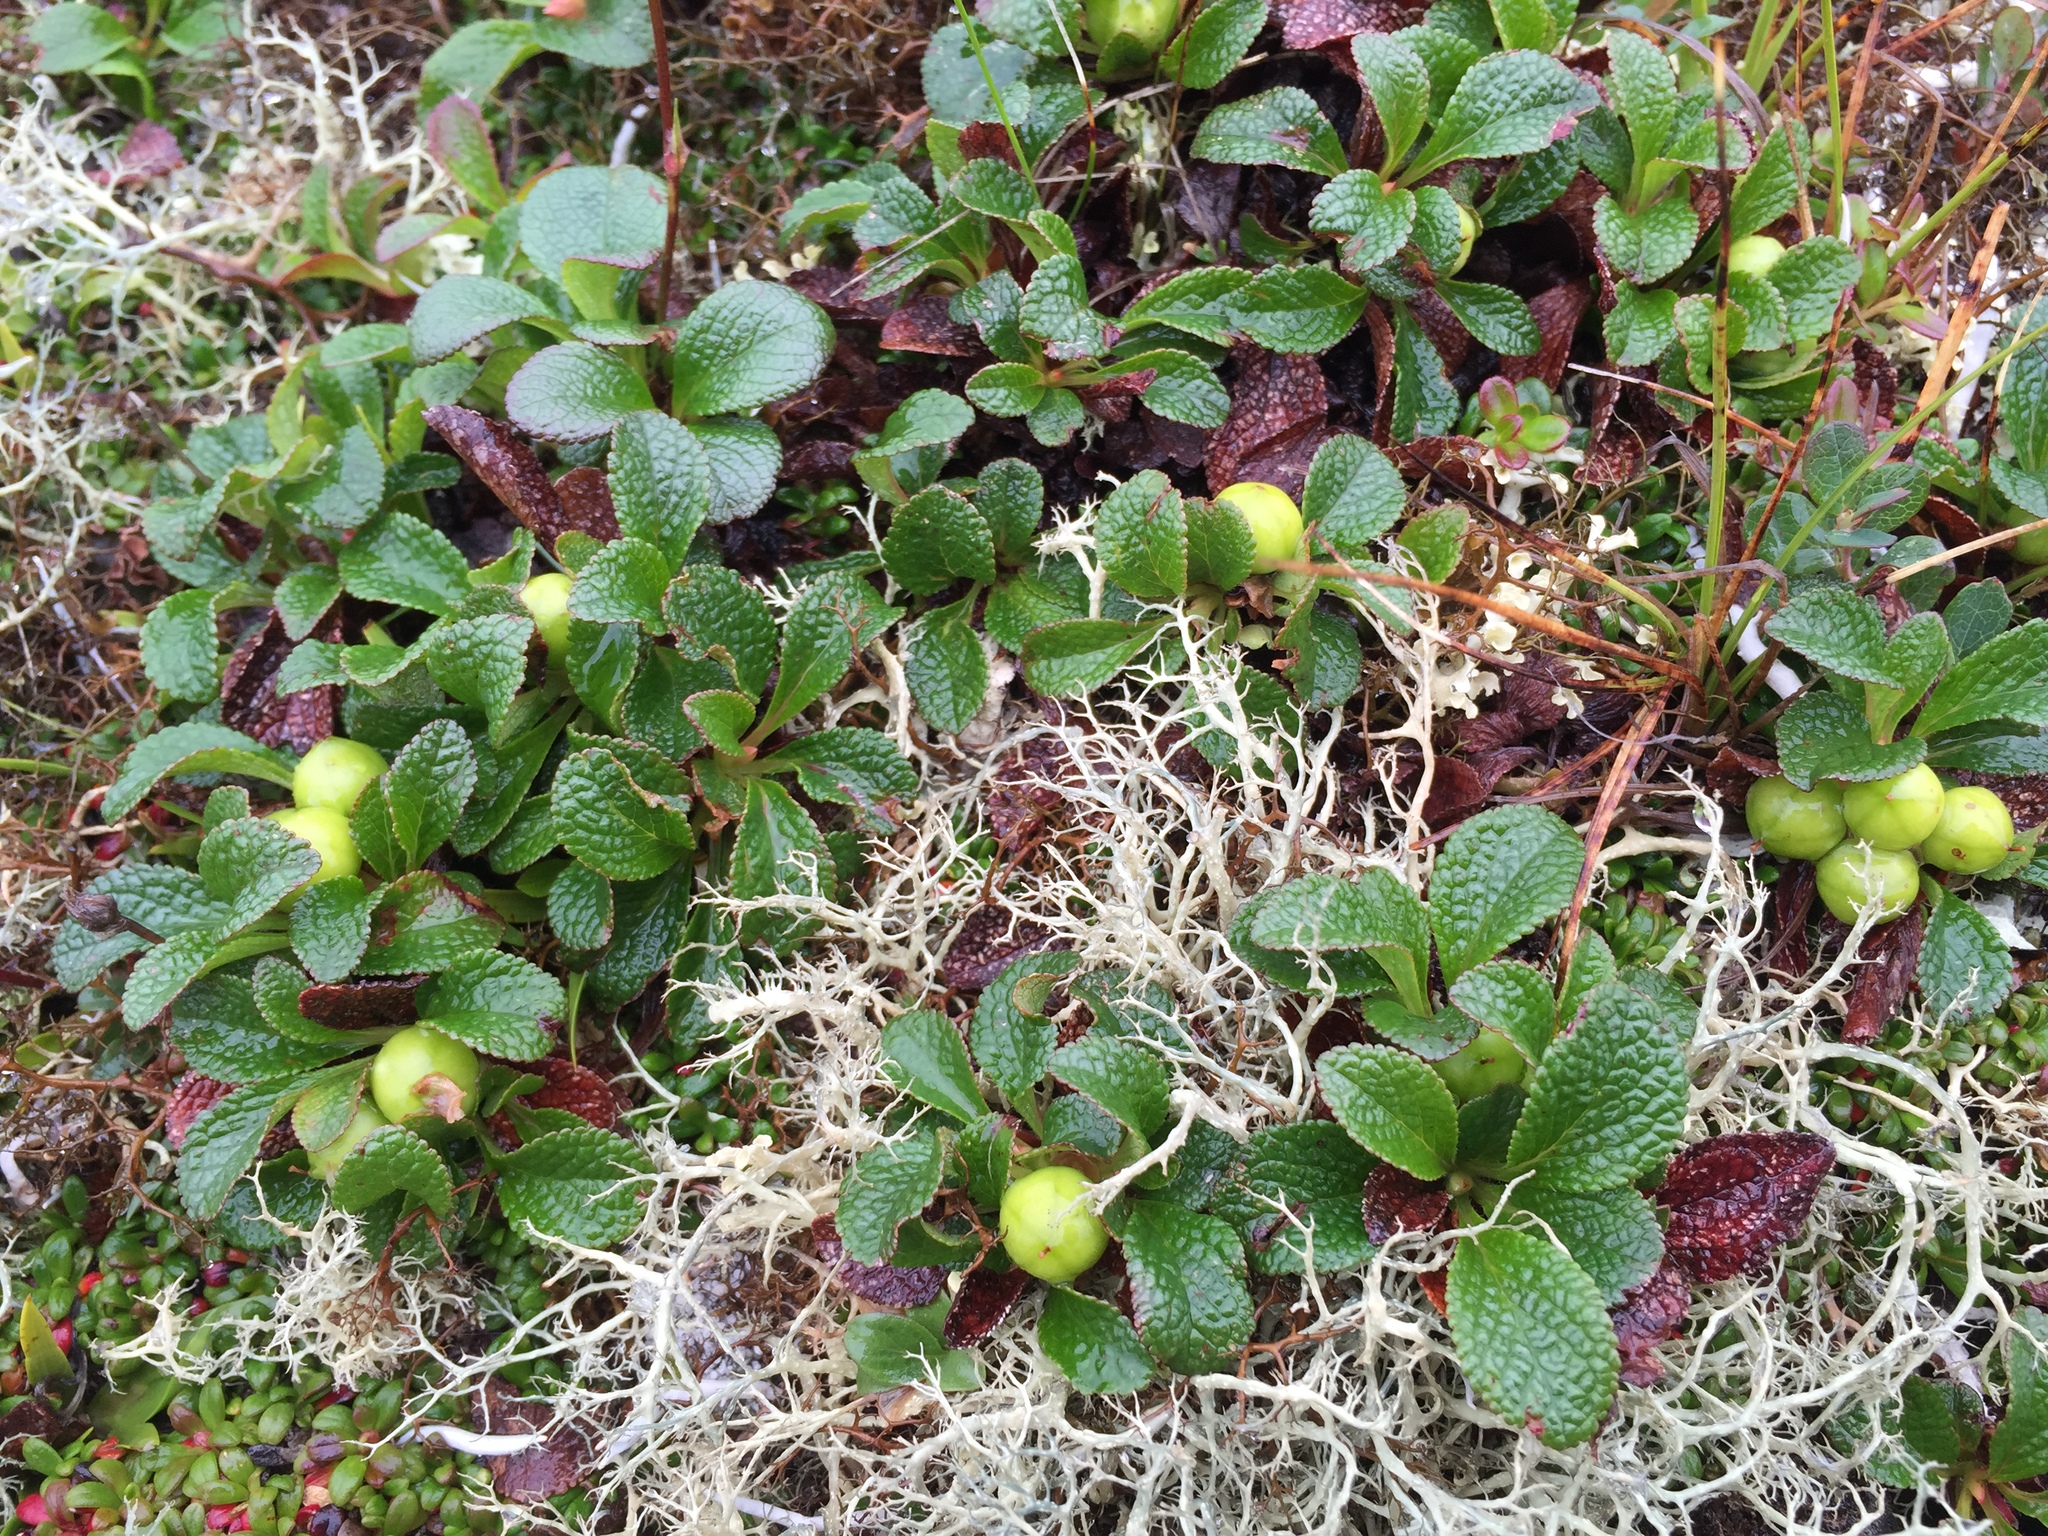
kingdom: Plantae
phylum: Tracheophyta
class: Magnoliopsida
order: Ericales
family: Ericaceae
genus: Arctostaphylos
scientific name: Arctostaphylos alpinus
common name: Alpine bearberry
